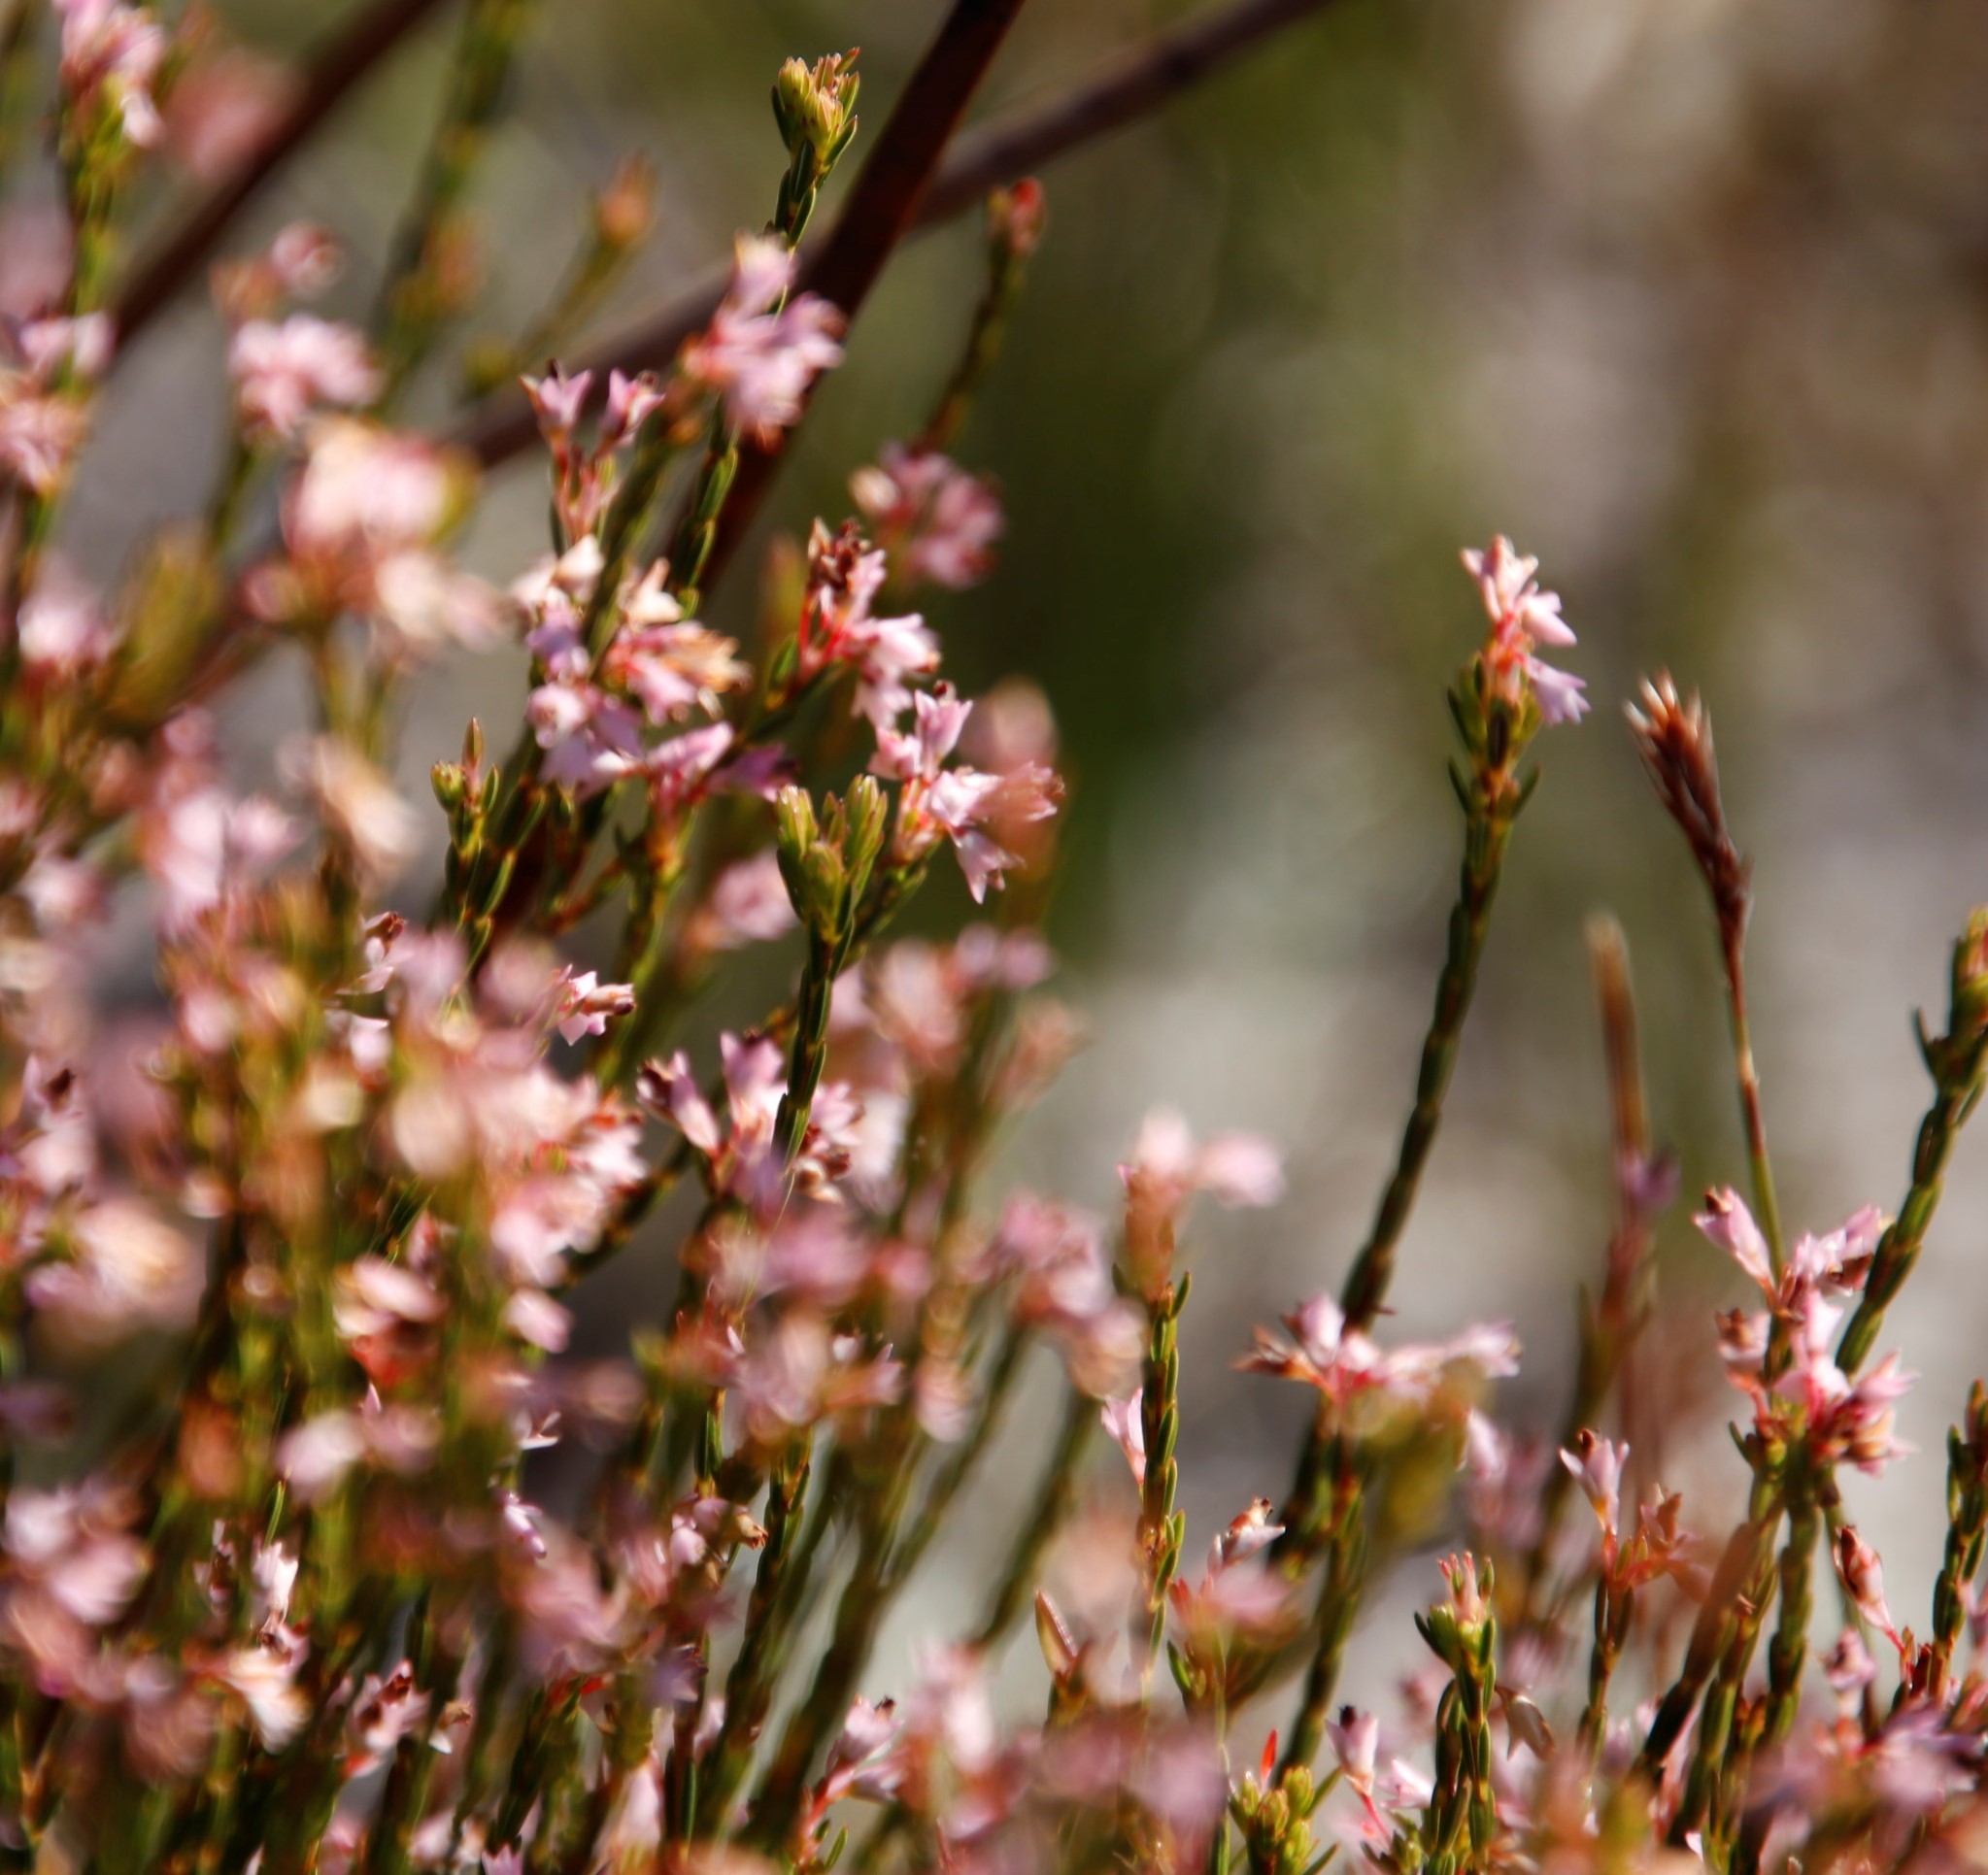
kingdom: Plantae
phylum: Tracheophyta
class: Magnoliopsida
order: Ericales
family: Ericaceae
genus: Erica
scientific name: Erica articularis
